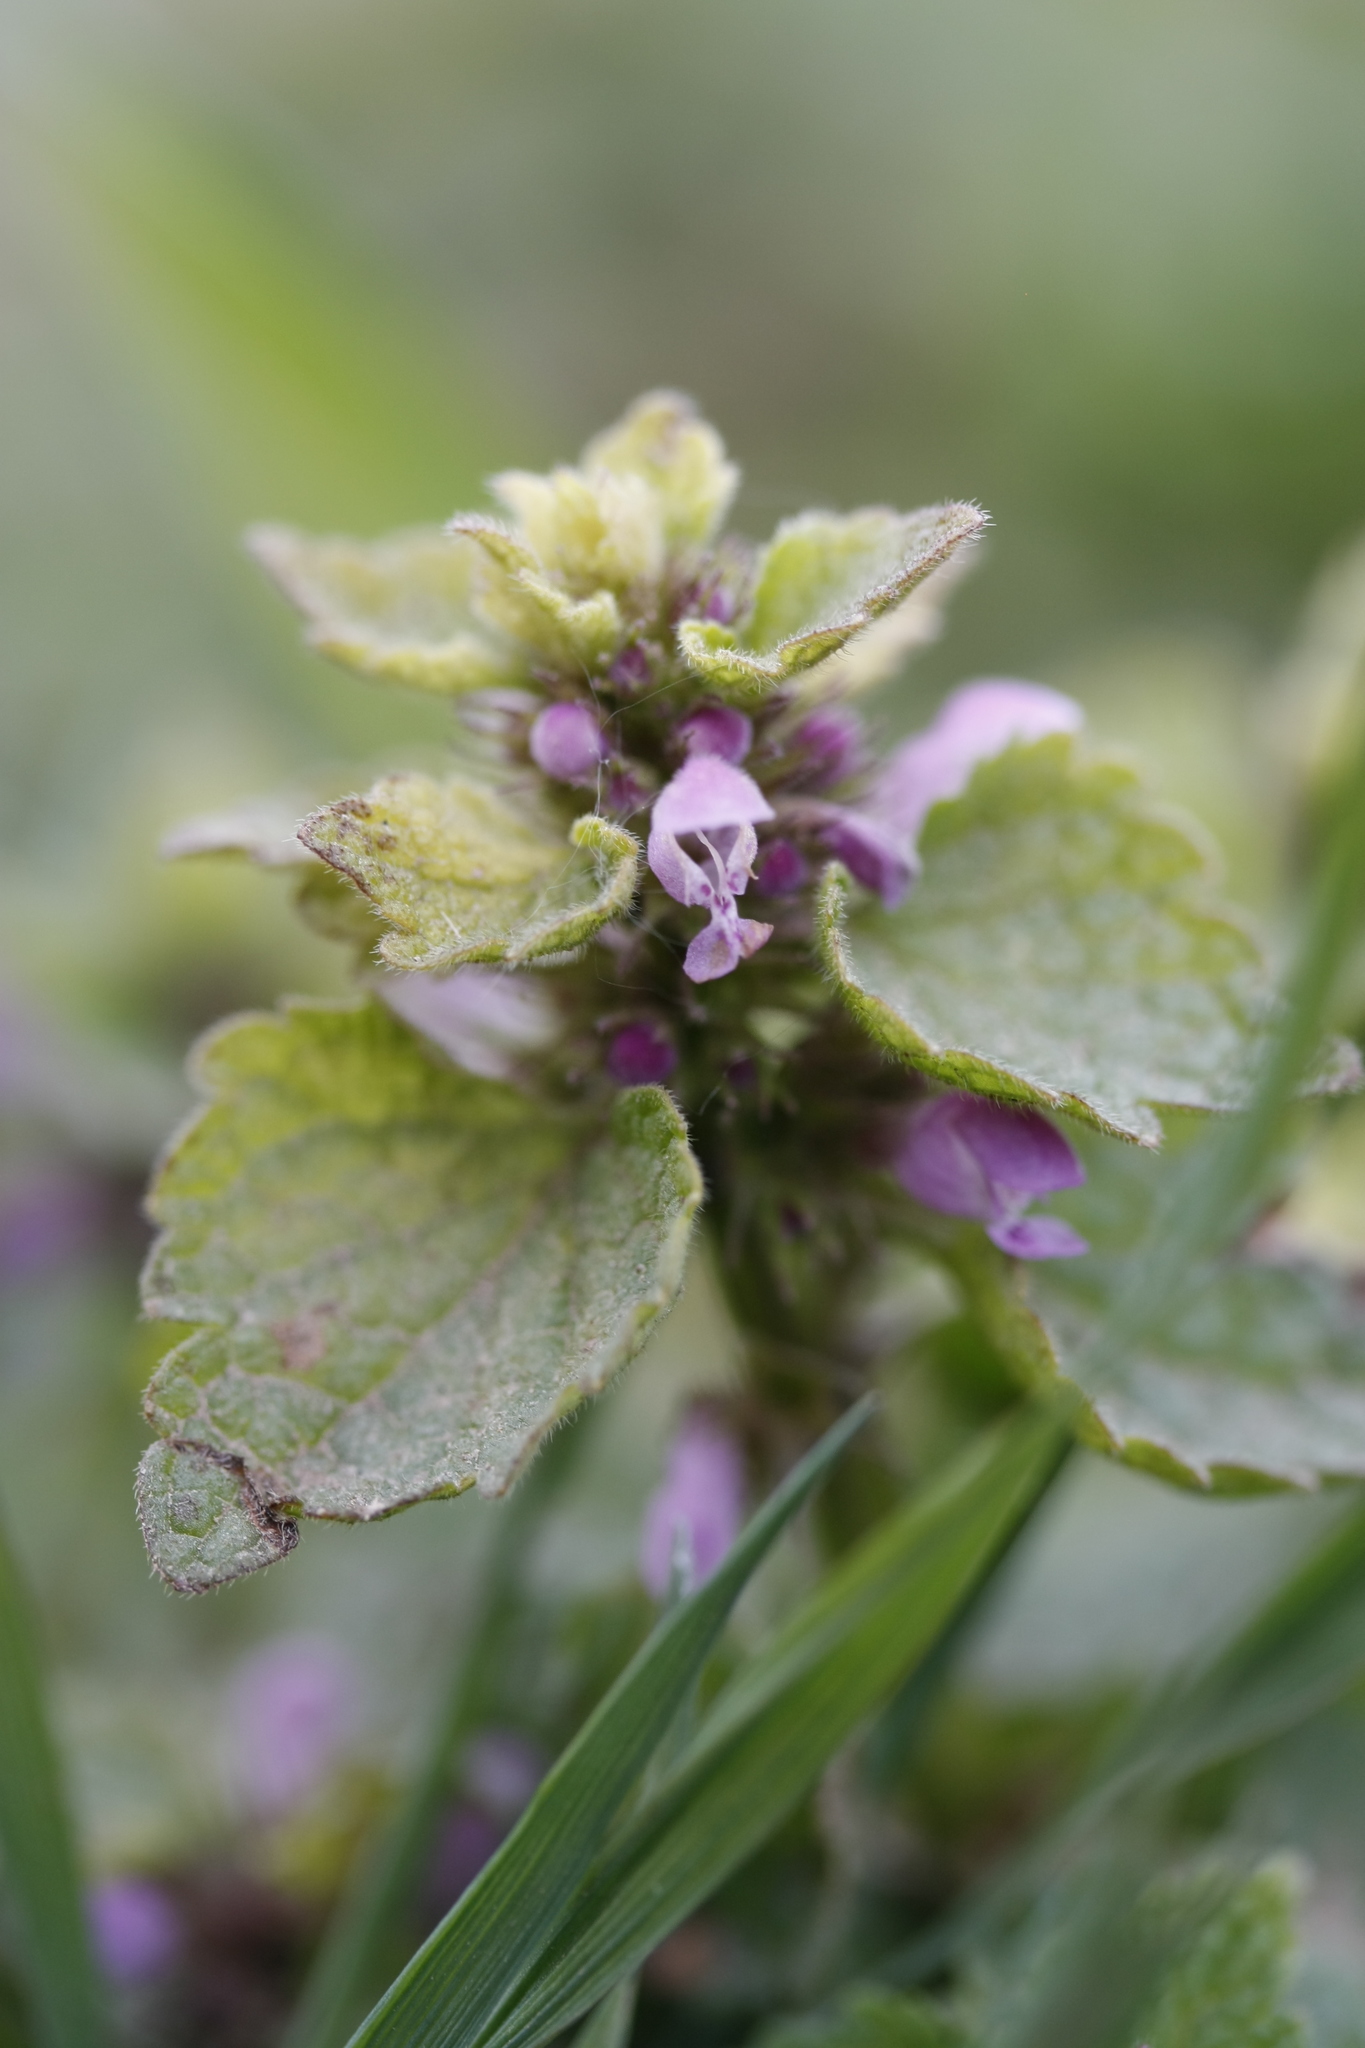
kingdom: Plantae
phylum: Tracheophyta
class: Magnoliopsida
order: Lamiales
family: Lamiaceae
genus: Lamium
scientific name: Lamium purpureum
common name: Red dead-nettle
